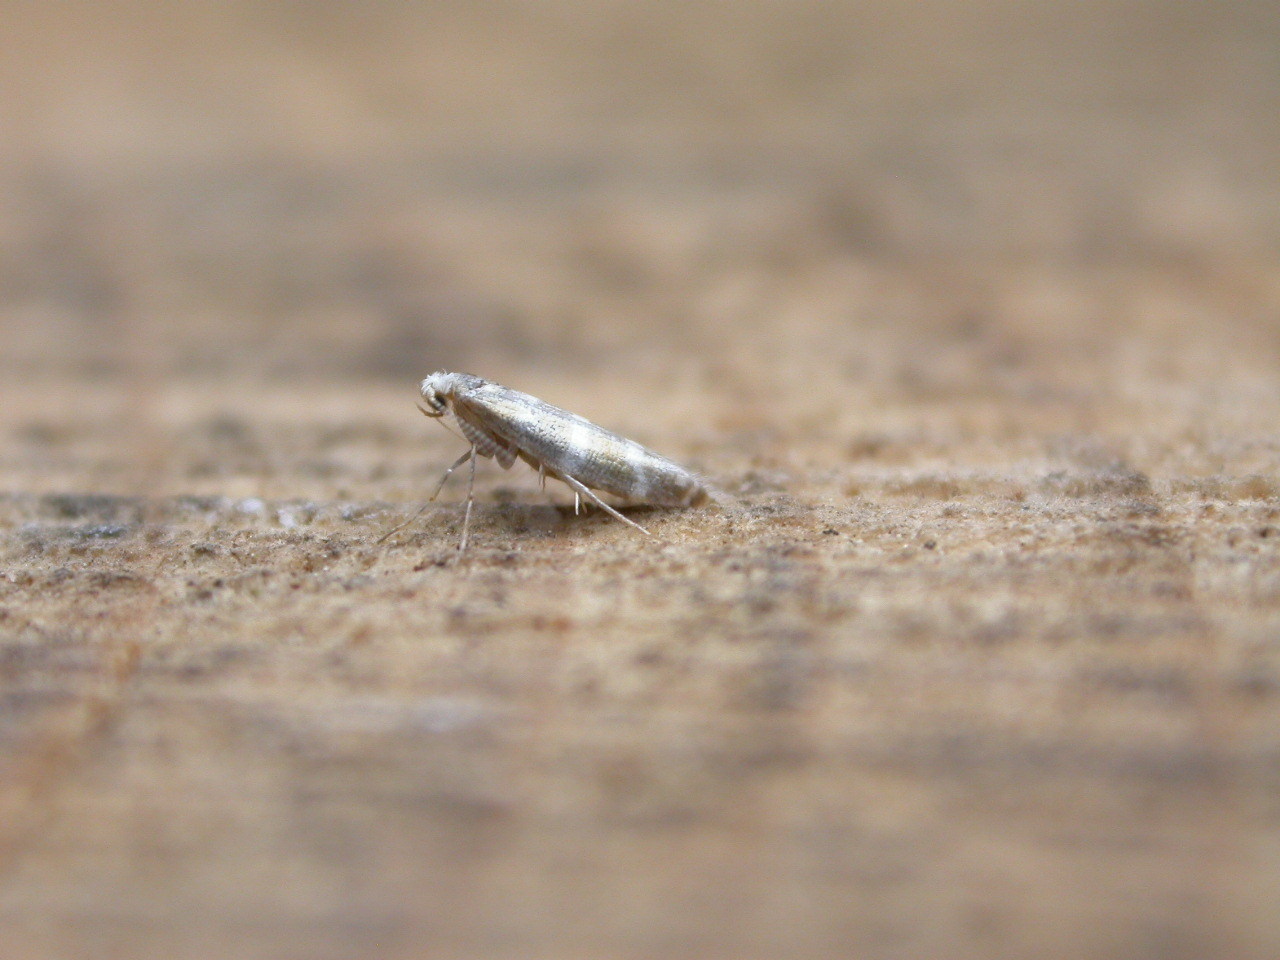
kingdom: Animalia
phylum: Arthropoda
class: Insecta
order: Lepidoptera
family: Argyresthiidae
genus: Argyresthia
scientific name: Argyresthia trifasciata
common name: Triple-barred argent
